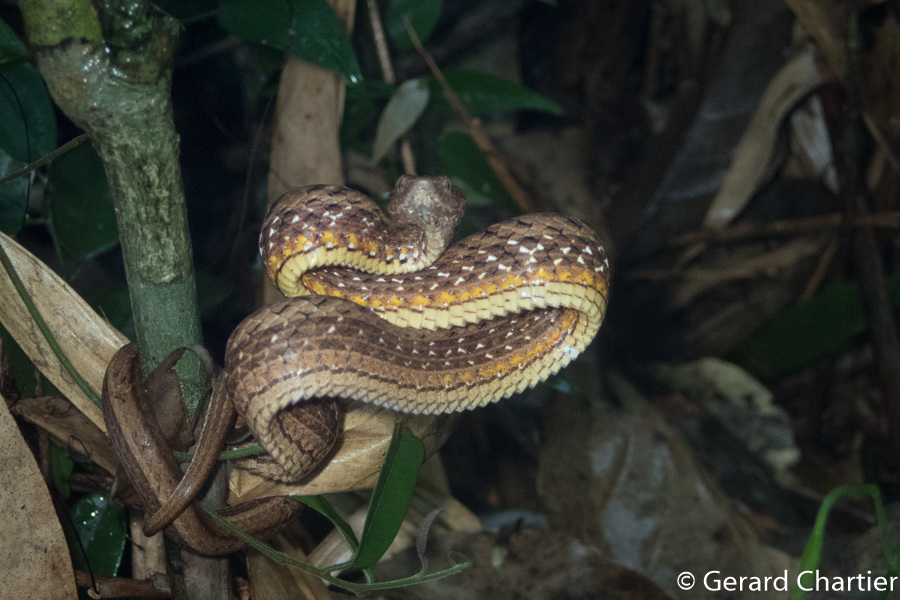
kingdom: Animalia
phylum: Chordata
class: Squamata
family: Pseudaspididae
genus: Psammodynastes
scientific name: Psammodynastes pulverulentus
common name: Common mock viper
